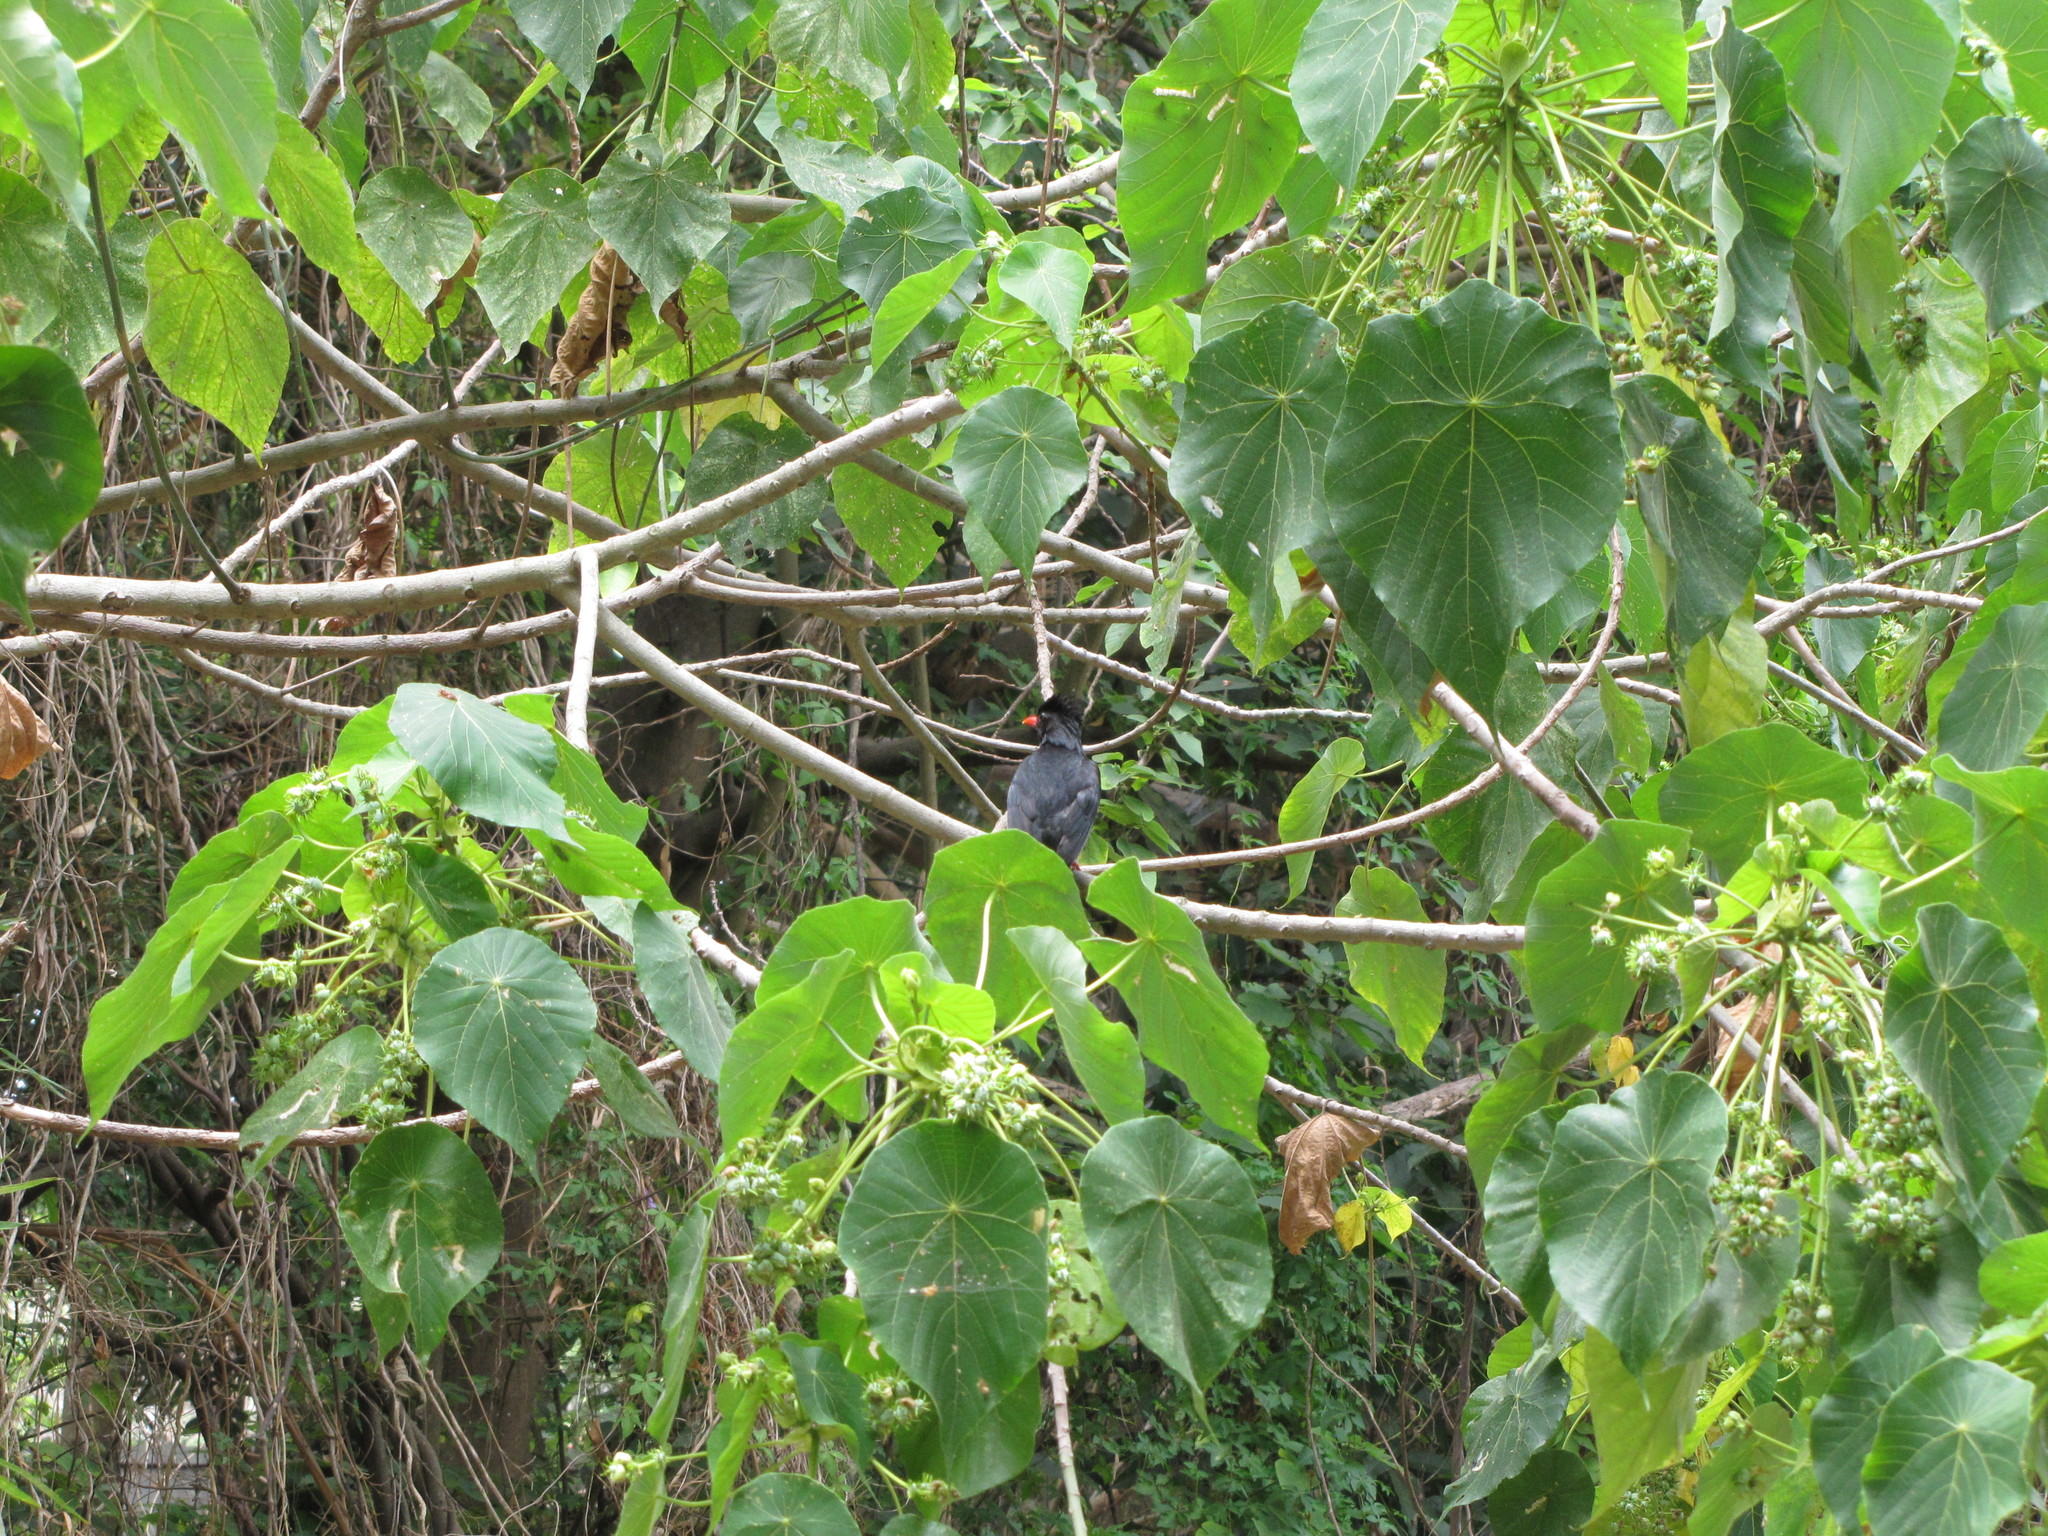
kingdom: Animalia
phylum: Chordata
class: Aves
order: Passeriformes
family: Pycnonotidae
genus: Hypsipetes
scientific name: Hypsipetes leucocephalus
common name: Black bulbul
